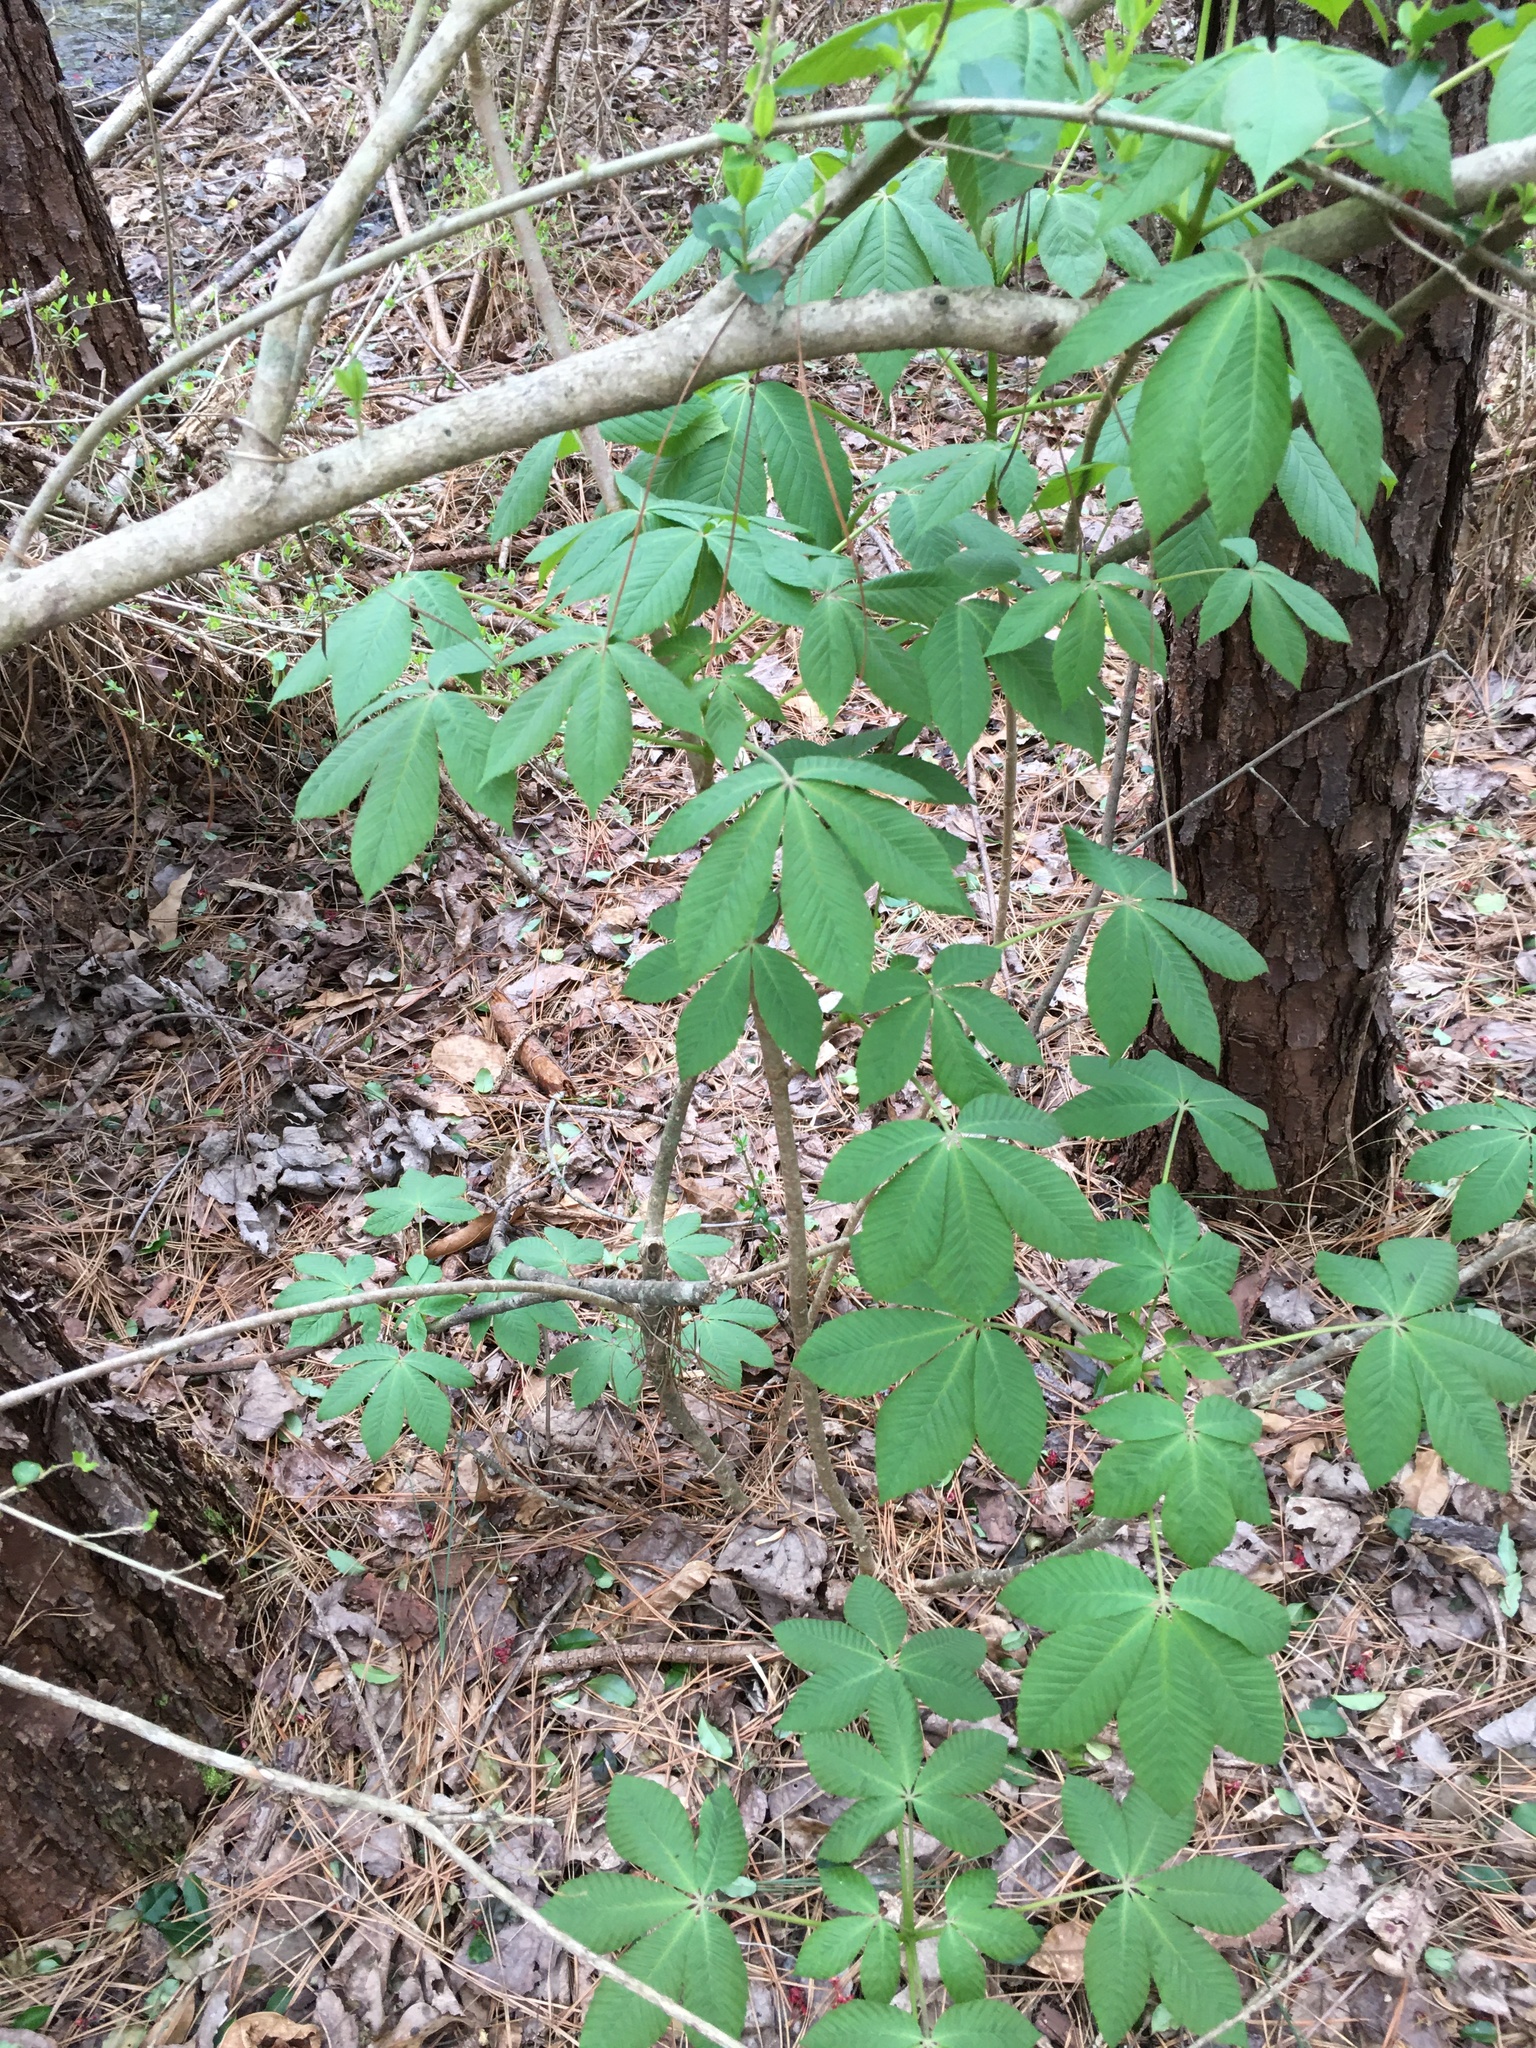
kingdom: Plantae
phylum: Tracheophyta
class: Magnoliopsida
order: Sapindales
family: Sapindaceae
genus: Aesculus
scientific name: Aesculus sylvatica
